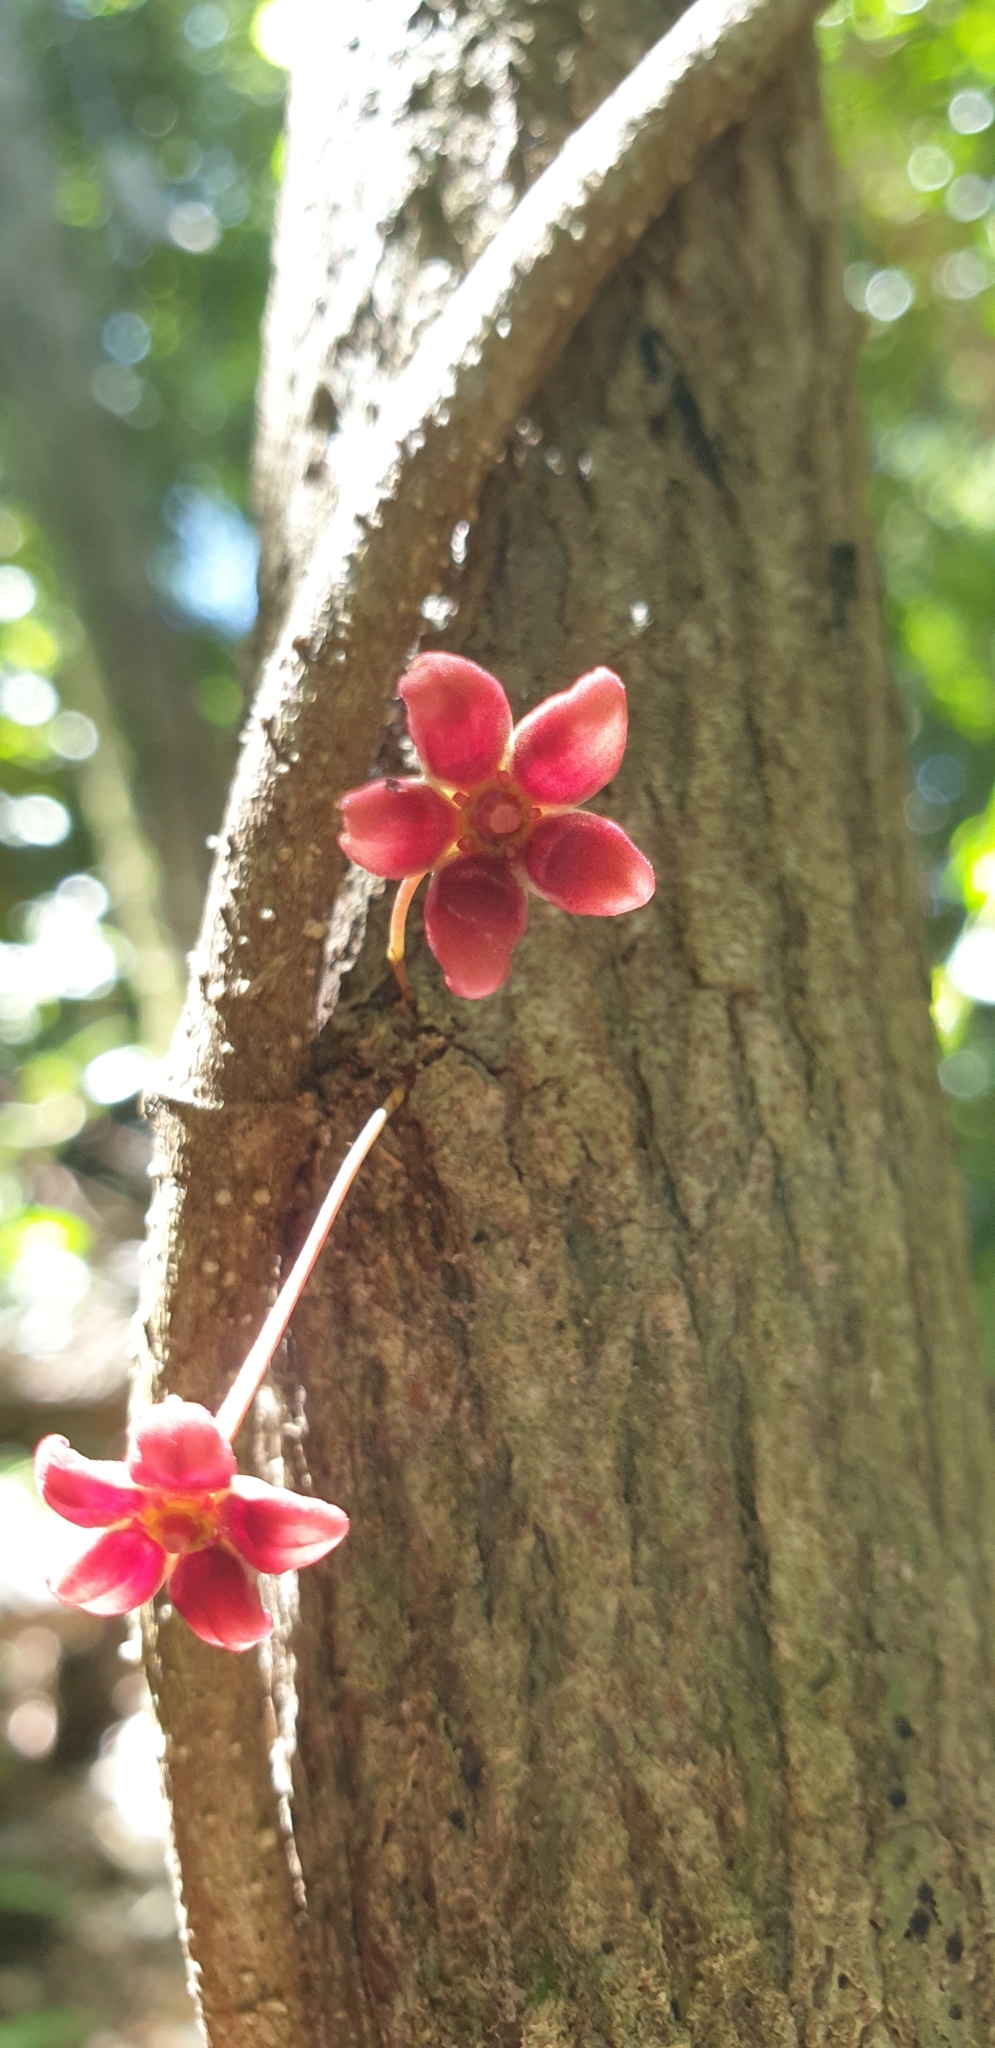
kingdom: Plantae
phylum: Tracheophyta
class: Magnoliopsida
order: Celastrales
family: Celastraceae
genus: Hedraianthera
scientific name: Hedraianthera porphyropetala
